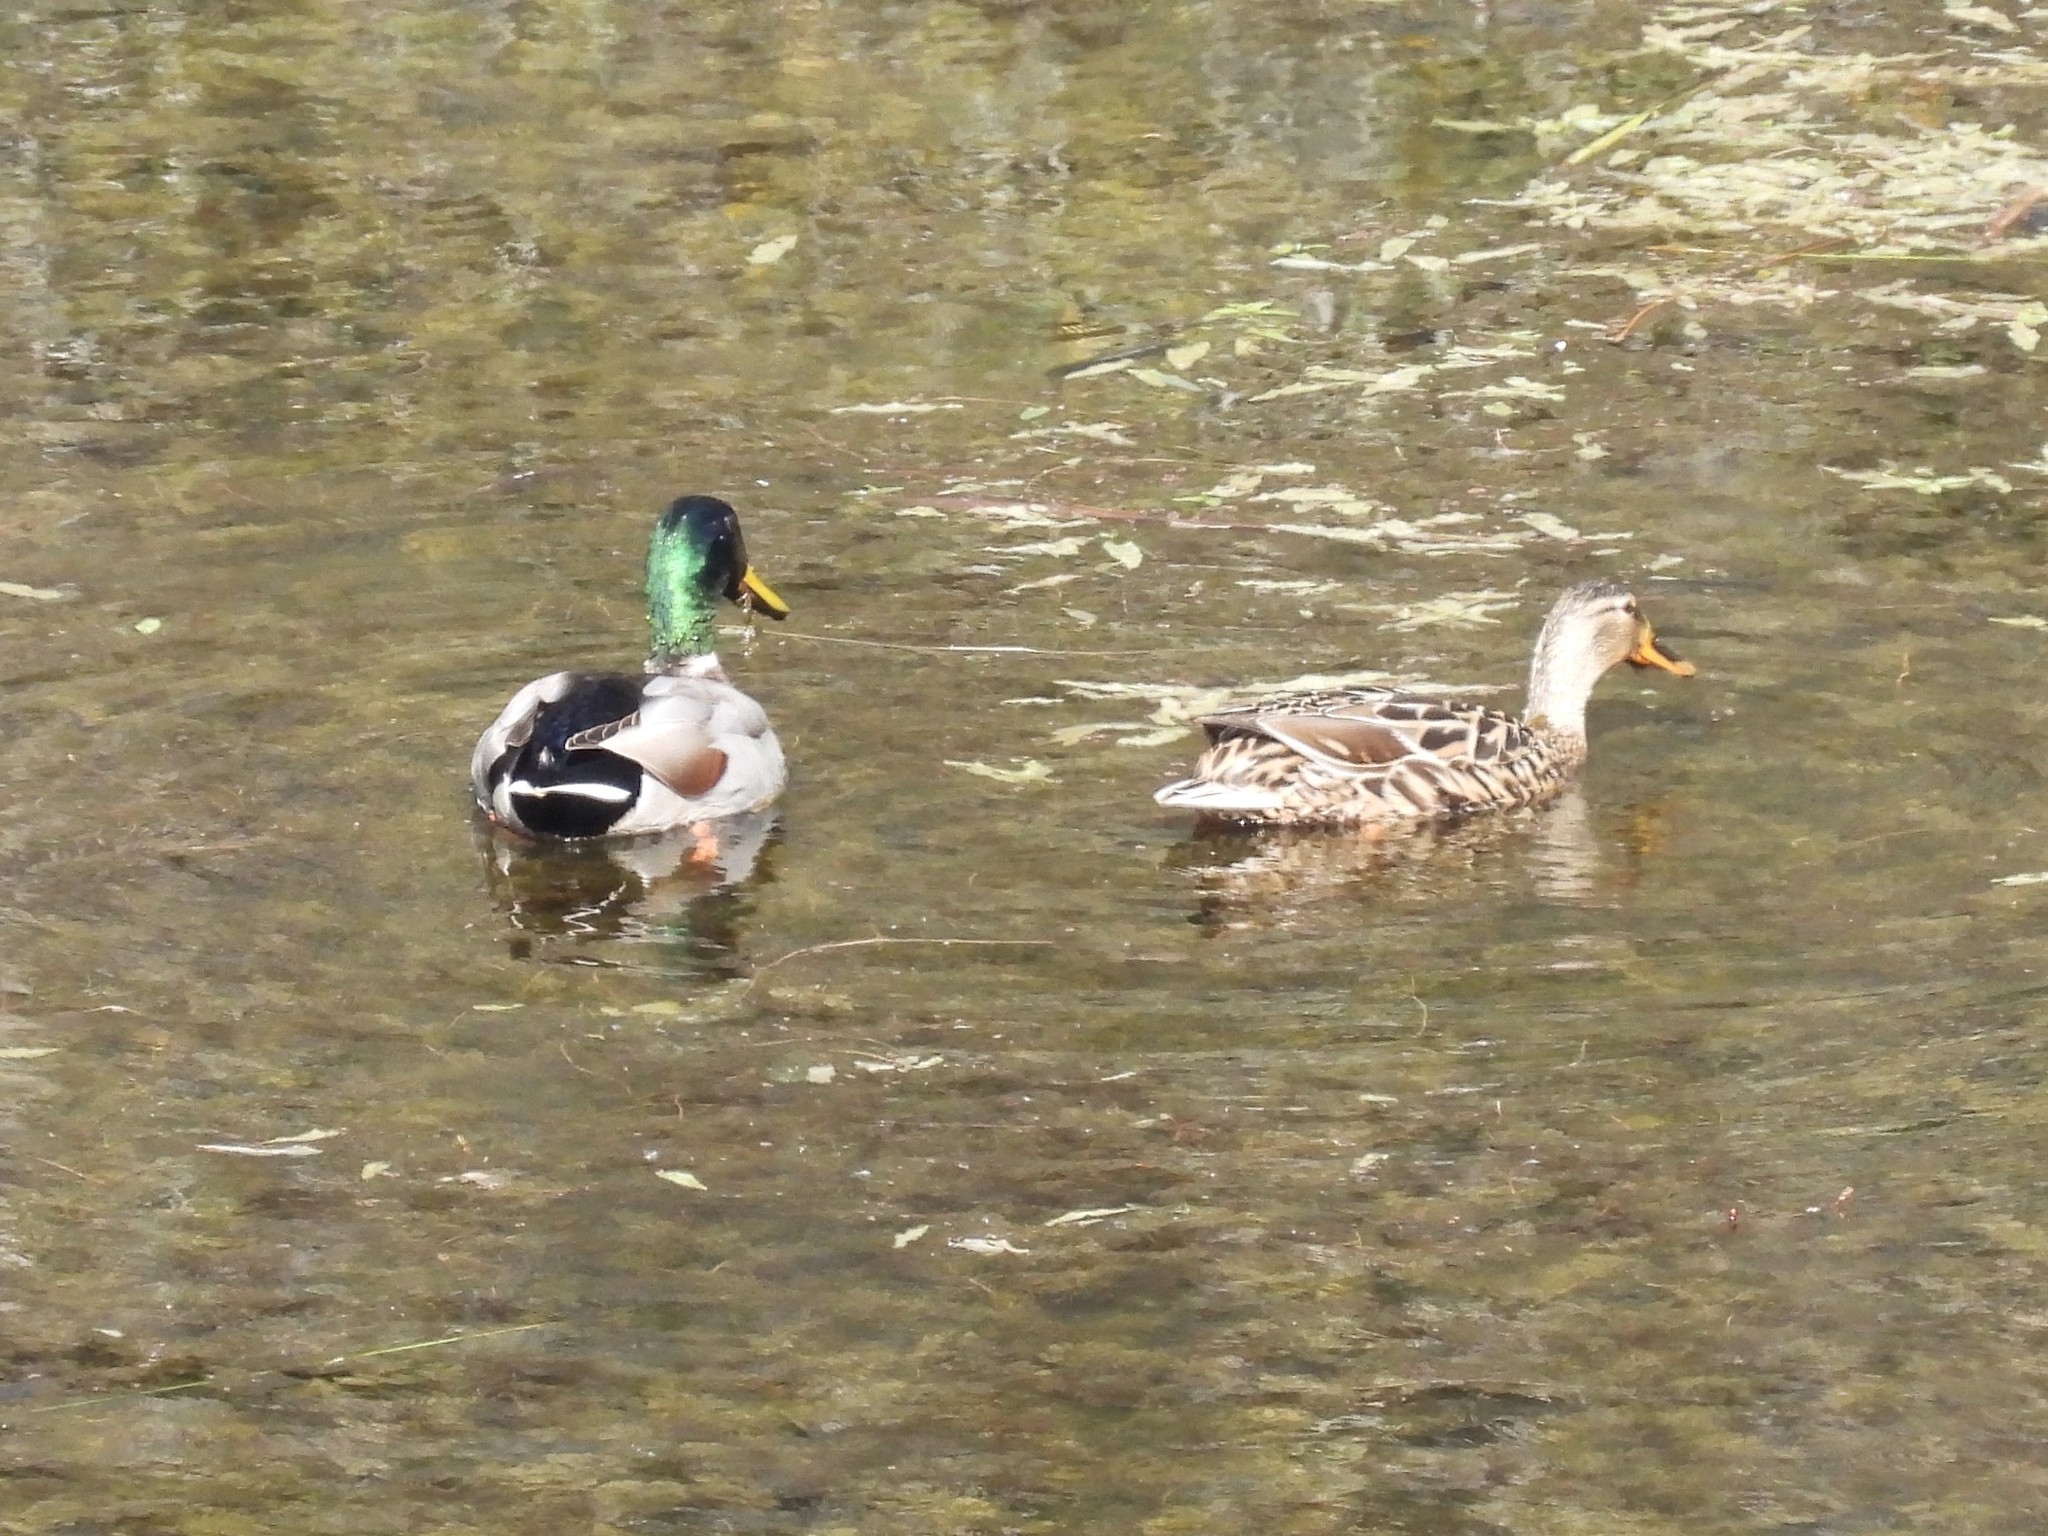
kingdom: Animalia
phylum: Chordata
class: Aves
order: Anseriformes
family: Anatidae
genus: Anas
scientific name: Anas platyrhynchos
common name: Mallard
